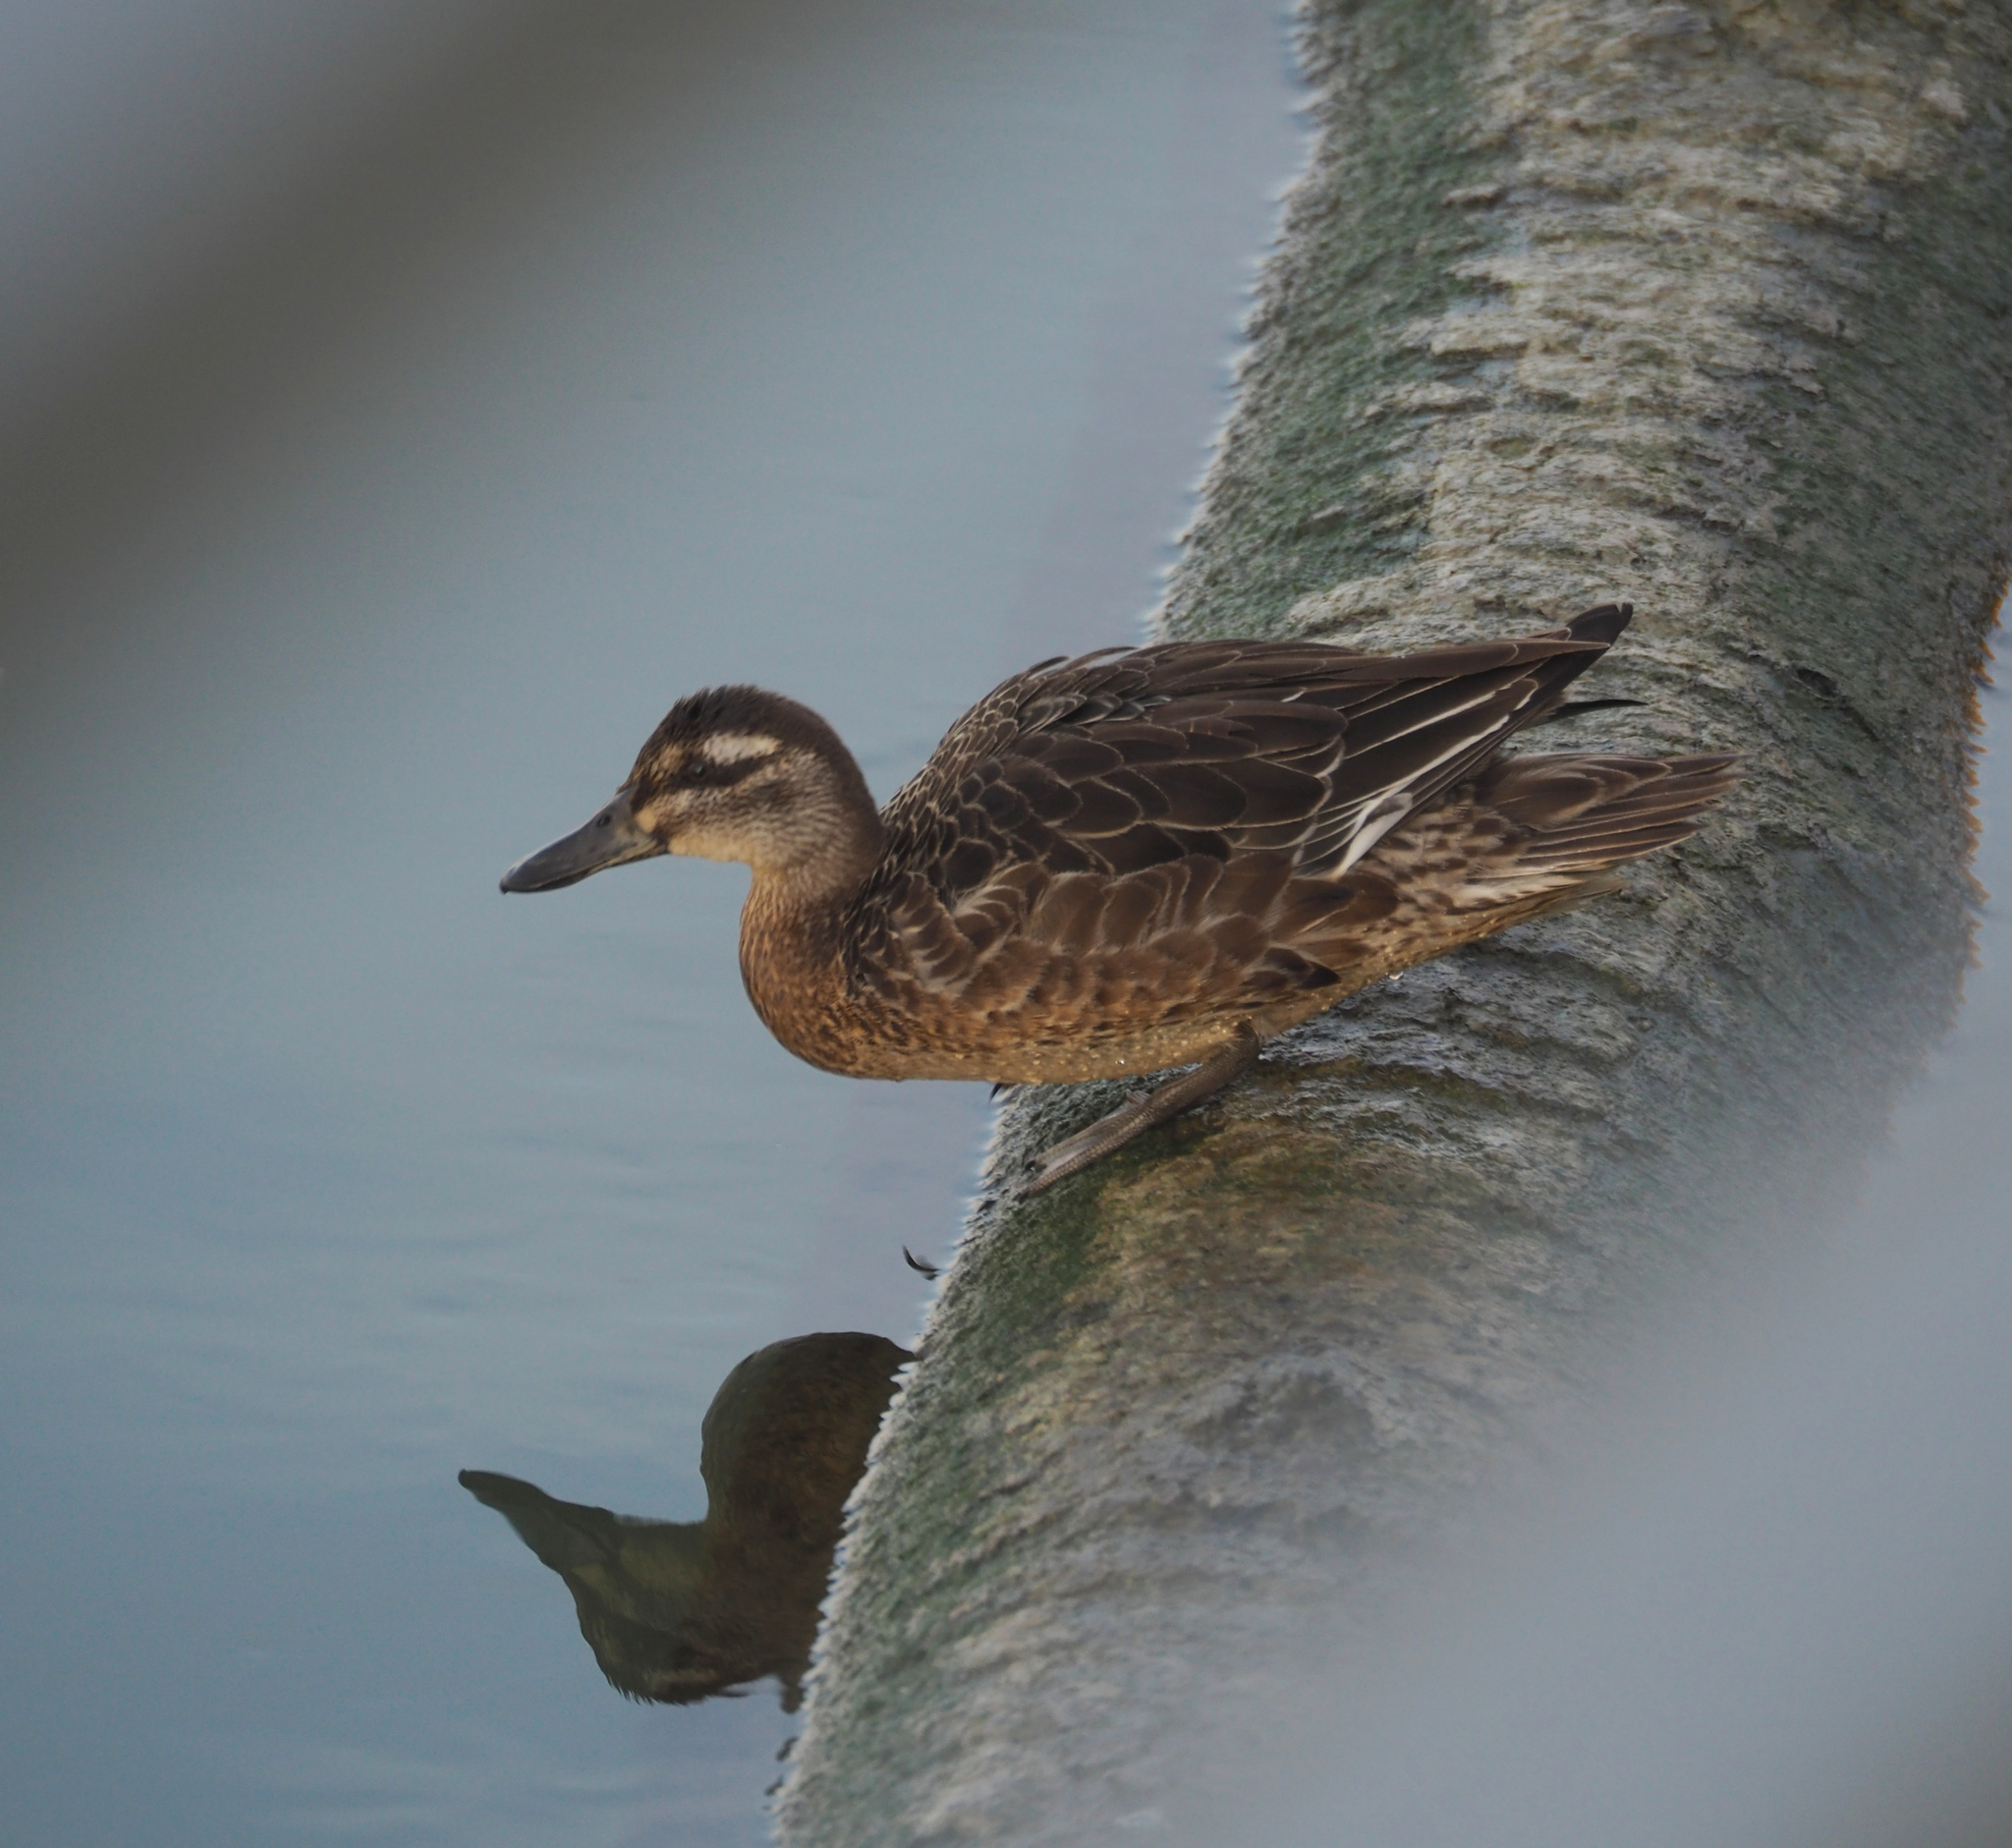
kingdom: Animalia
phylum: Chordata
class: Aves
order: Anseriformes
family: Anatidae
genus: Spatula
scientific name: Spatula querquedula
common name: Garganey
